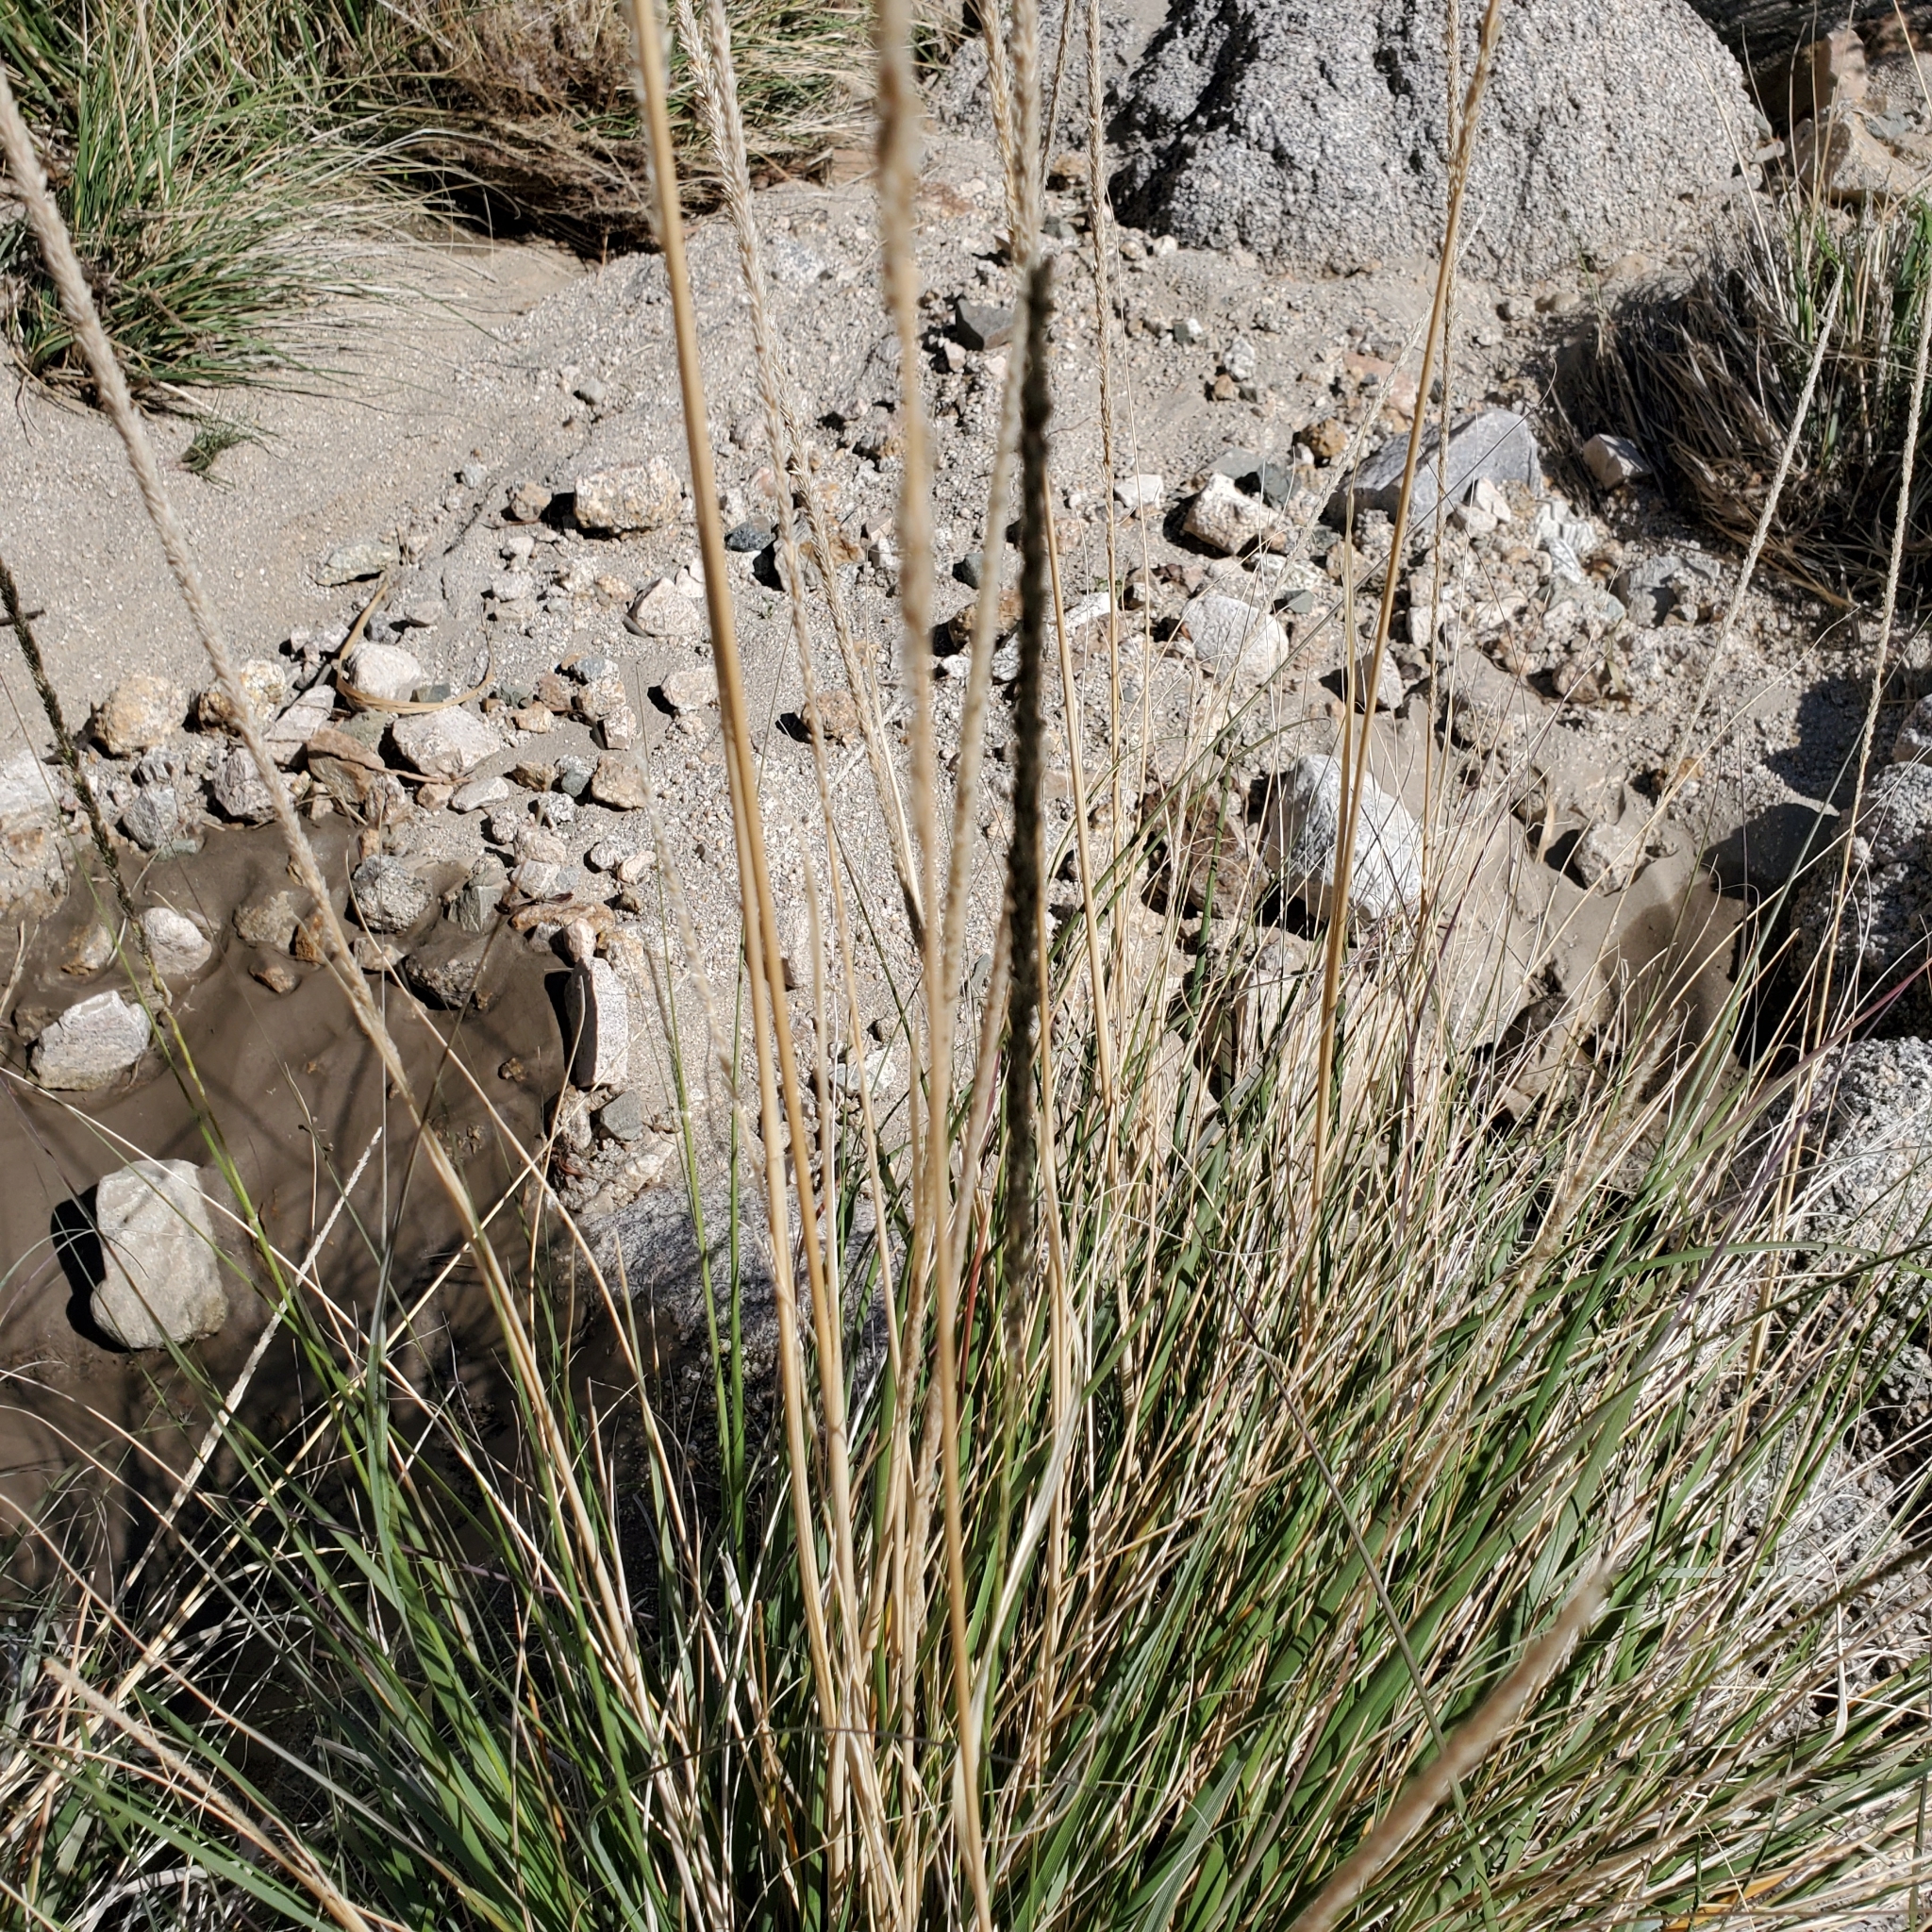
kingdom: Plantae
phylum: Tracheophyta
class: Liliopsida
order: Poales
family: Poaceae
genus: Muhlenbergia
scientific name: Muhlenbergia rigens
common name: Deer grass
